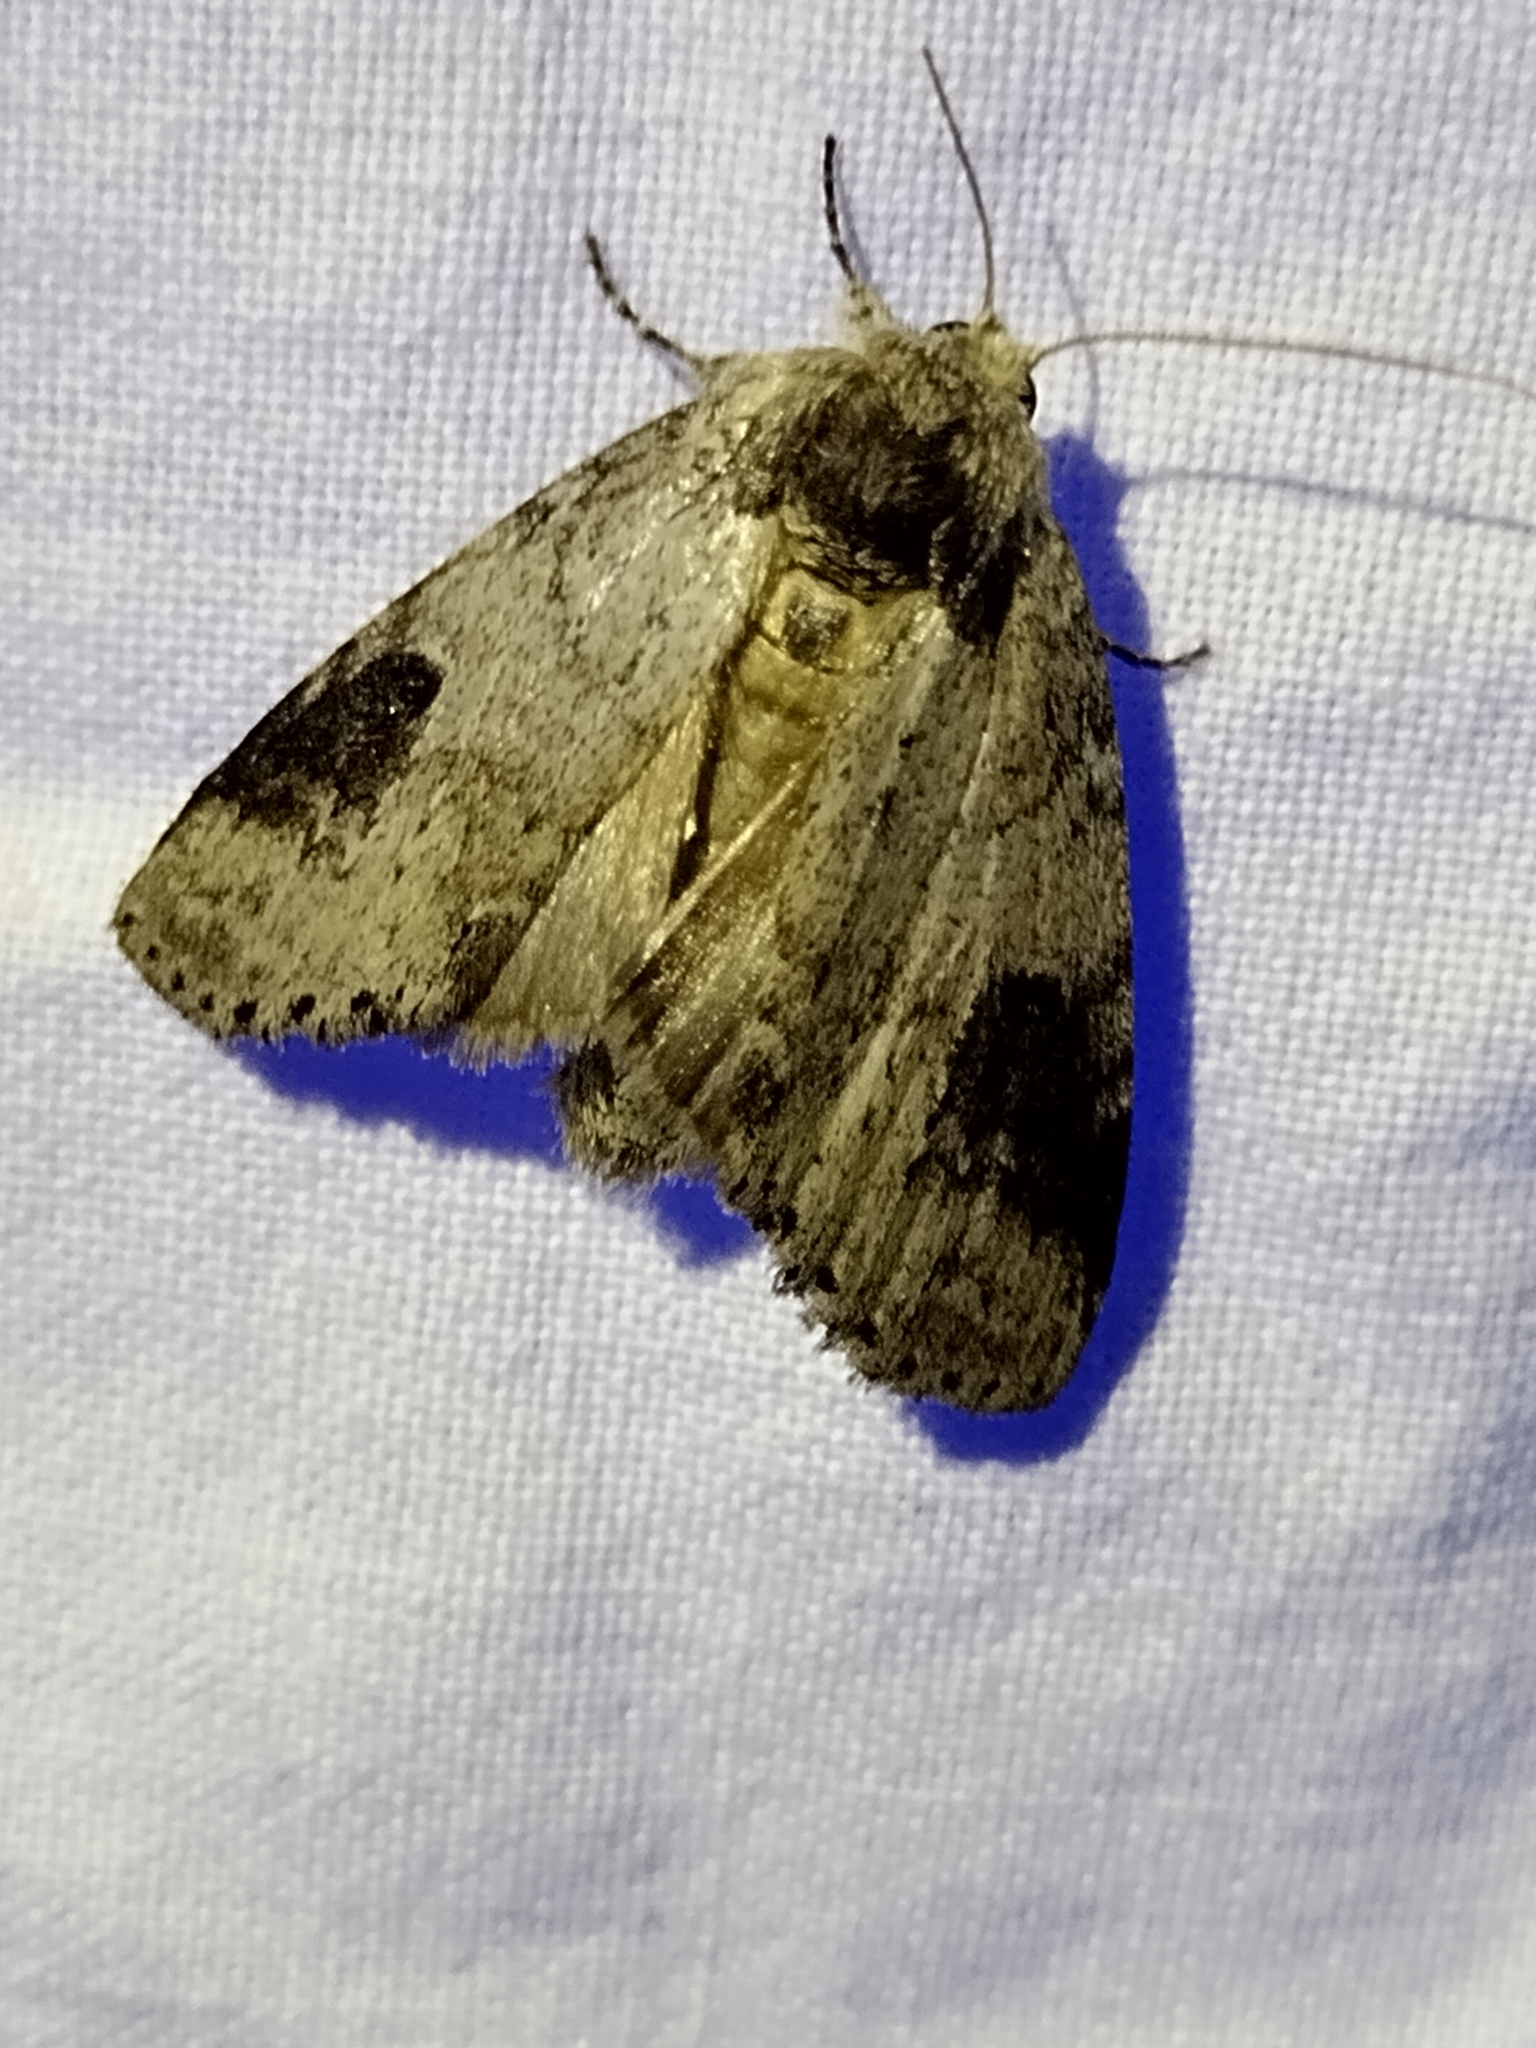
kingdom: Animalia
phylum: Arthropoda
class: Insecta
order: Lepidoptera
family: Notodontidae
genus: Lochmaeus
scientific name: Lochmaeus manteo
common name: Variable oakleaf caterpillar moth
